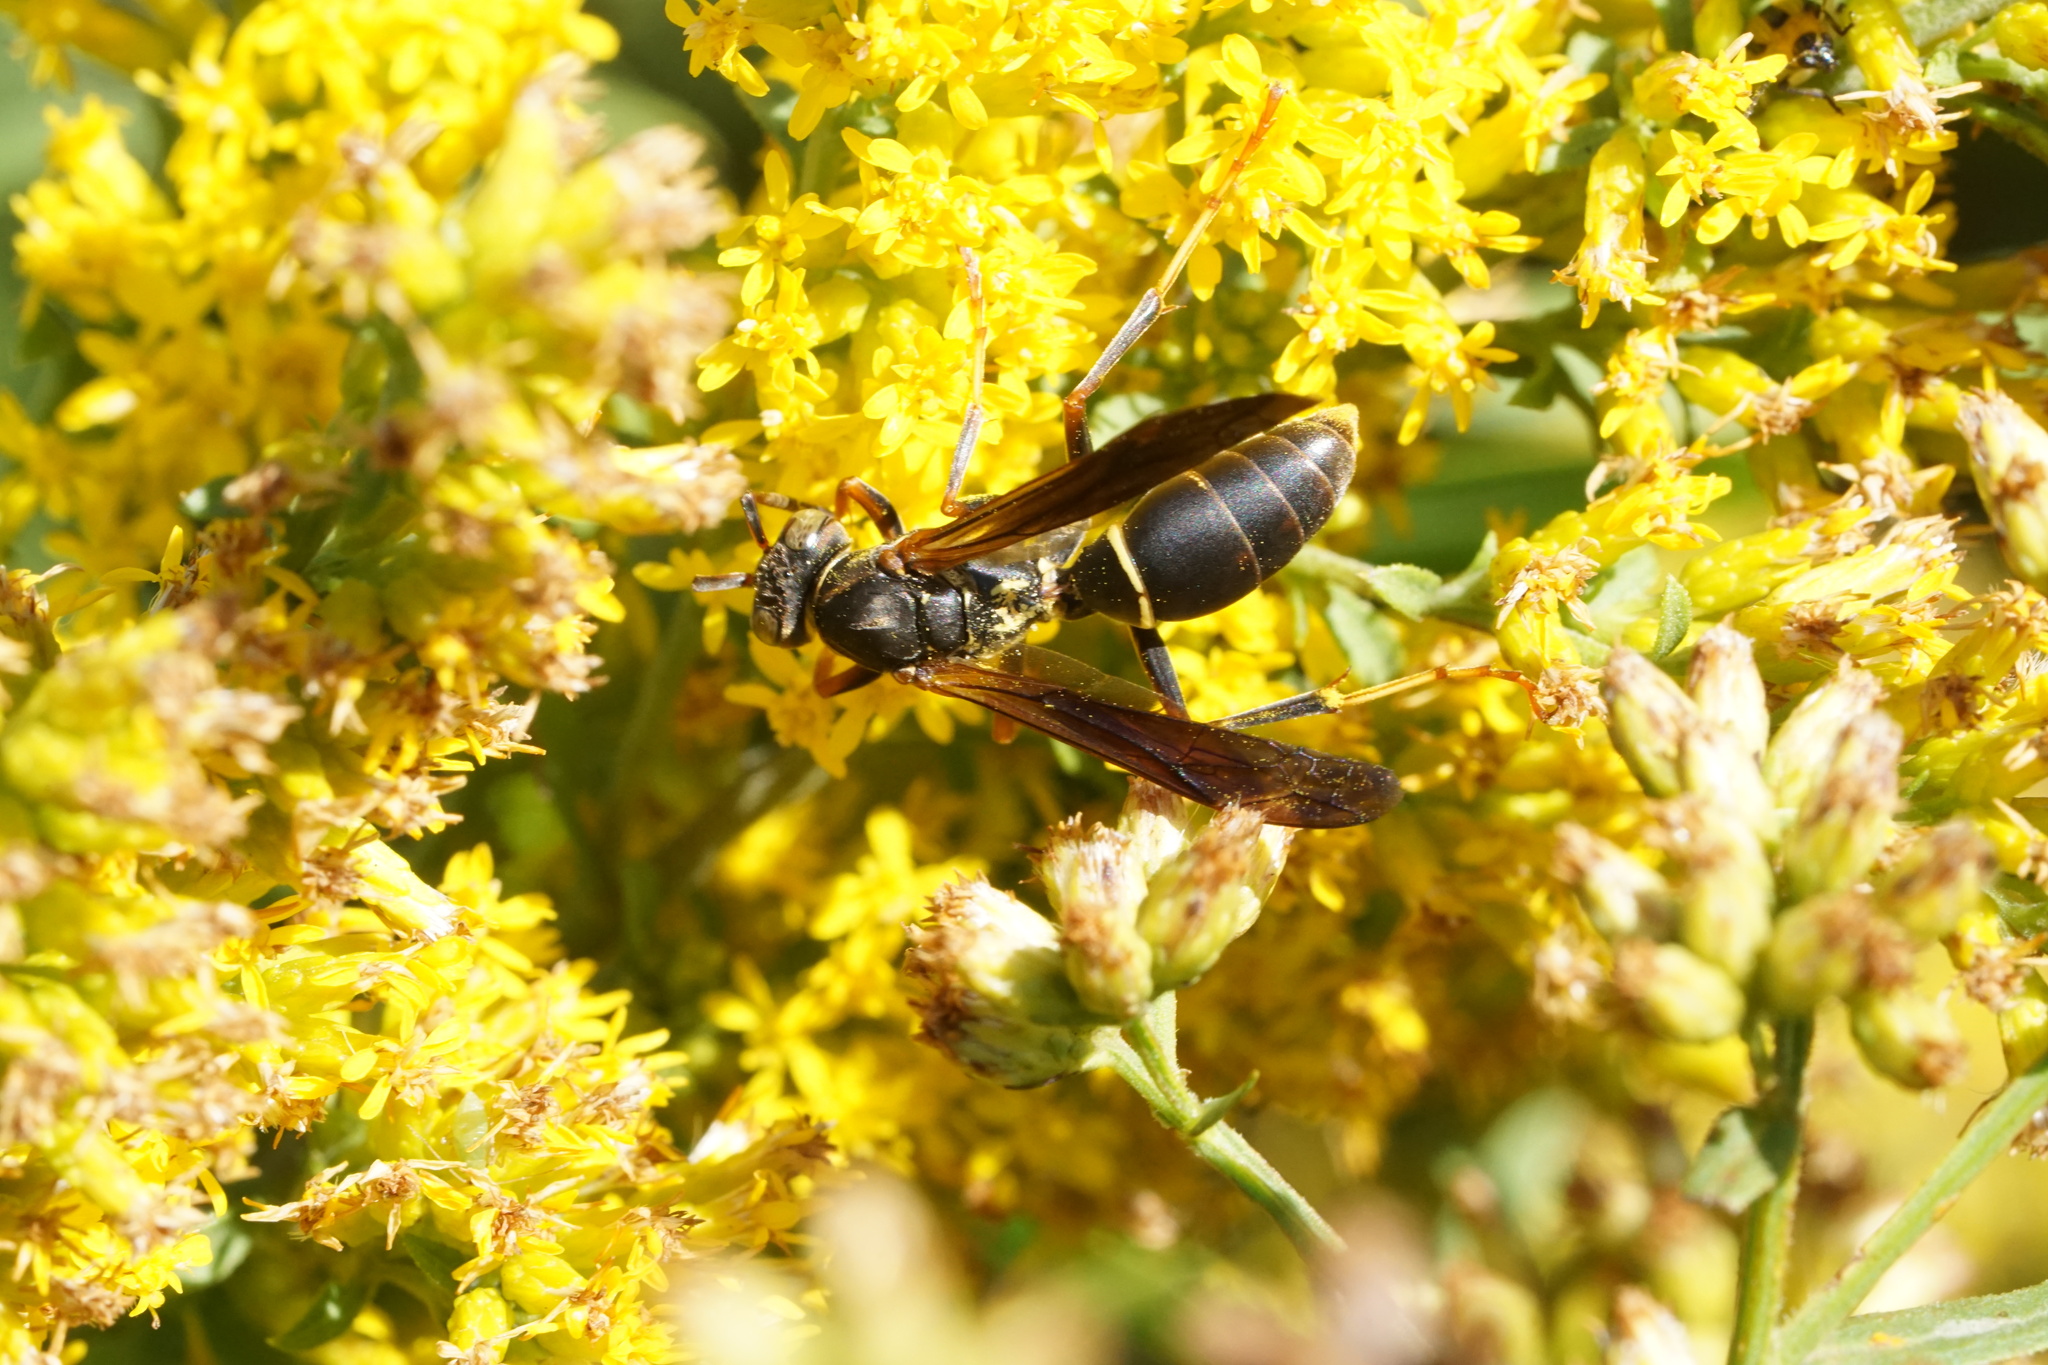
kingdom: Animalia
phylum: Arthropoda
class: Insecta
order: Hymenoptera
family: Eumenidae
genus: Polistes
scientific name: Polistes fuscatus
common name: Dark paper wasp
